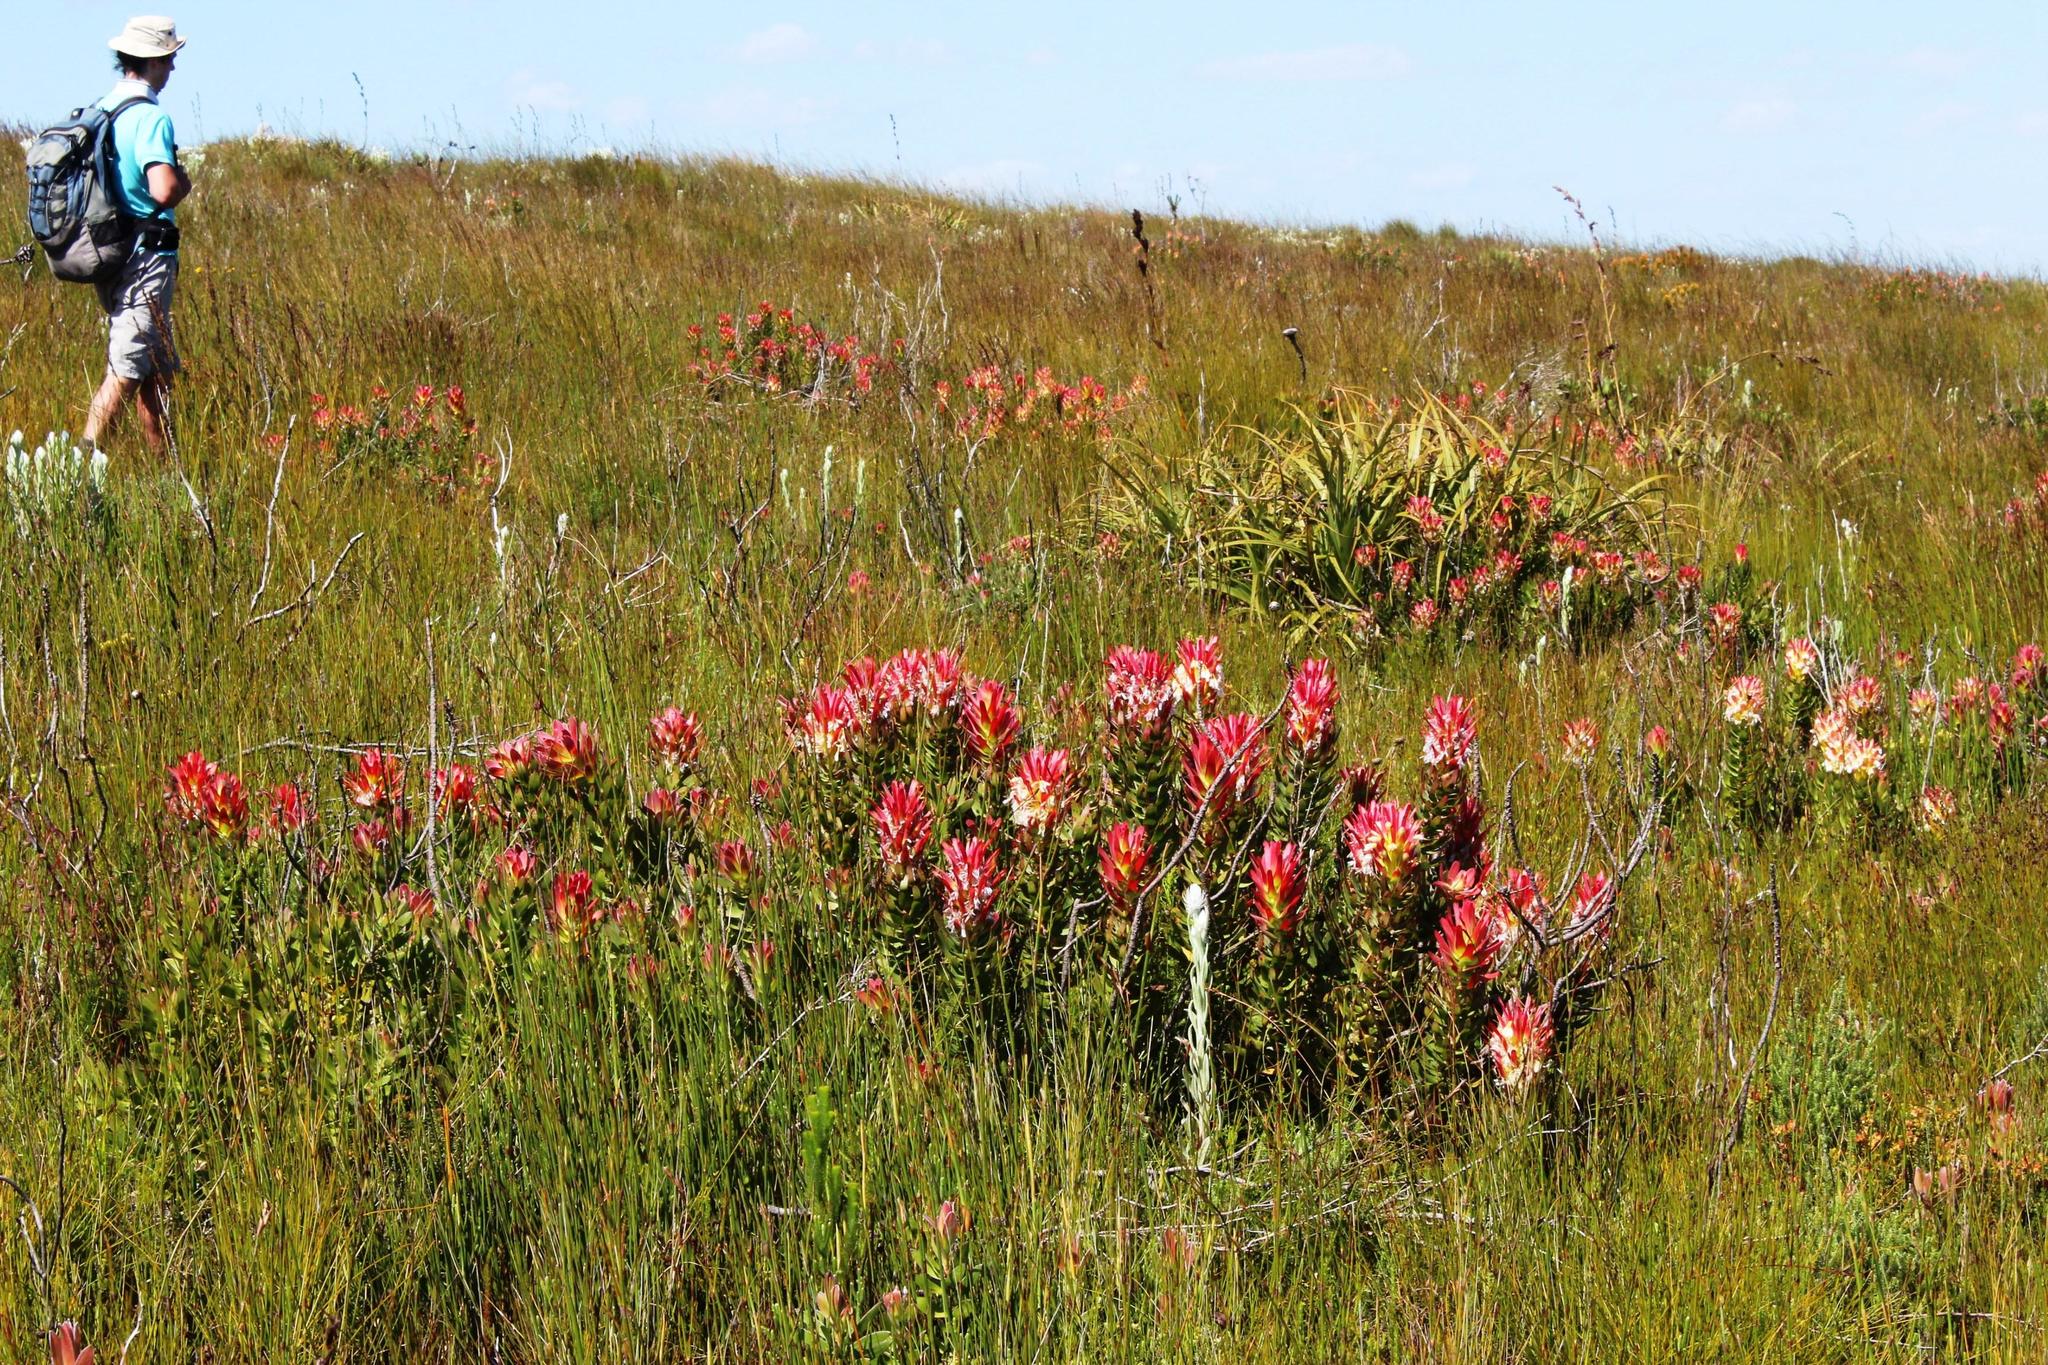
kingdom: Plantae
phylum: Tracheophyta
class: Magnoliopsida
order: Proteales
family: Proteaceae
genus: Mimetes
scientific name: Mimetes cucullatus
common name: Common pagoda
